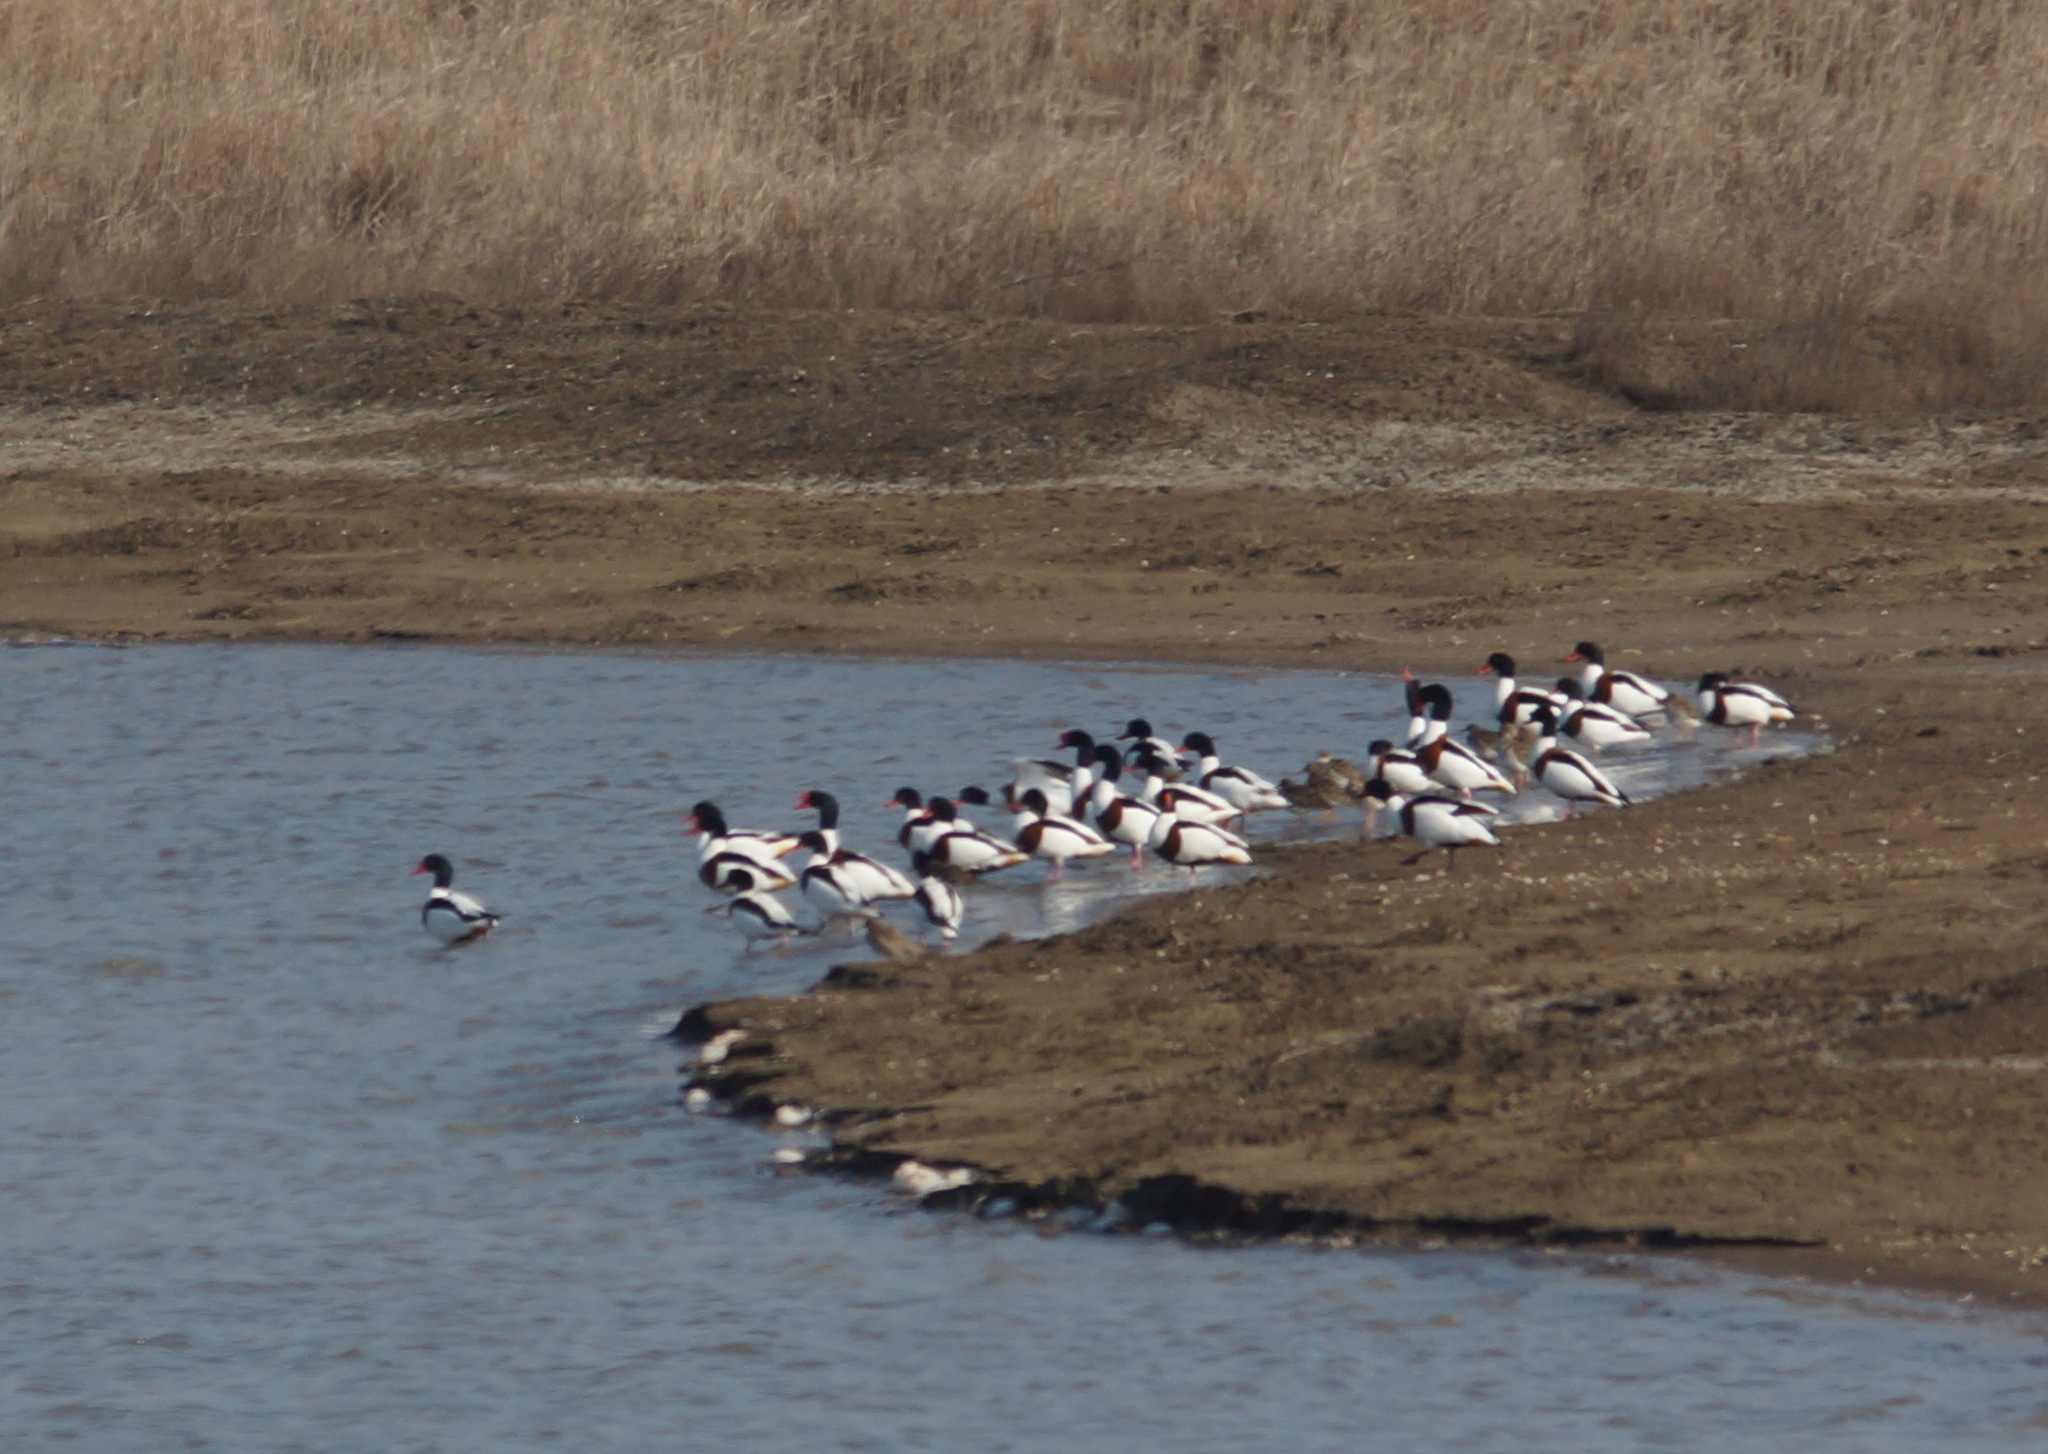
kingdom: Animalia
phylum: Chordata
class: Aves
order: Anseriformes
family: Anatidae
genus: Tadorna
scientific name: Tadorna tadorna
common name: Common shelduck
